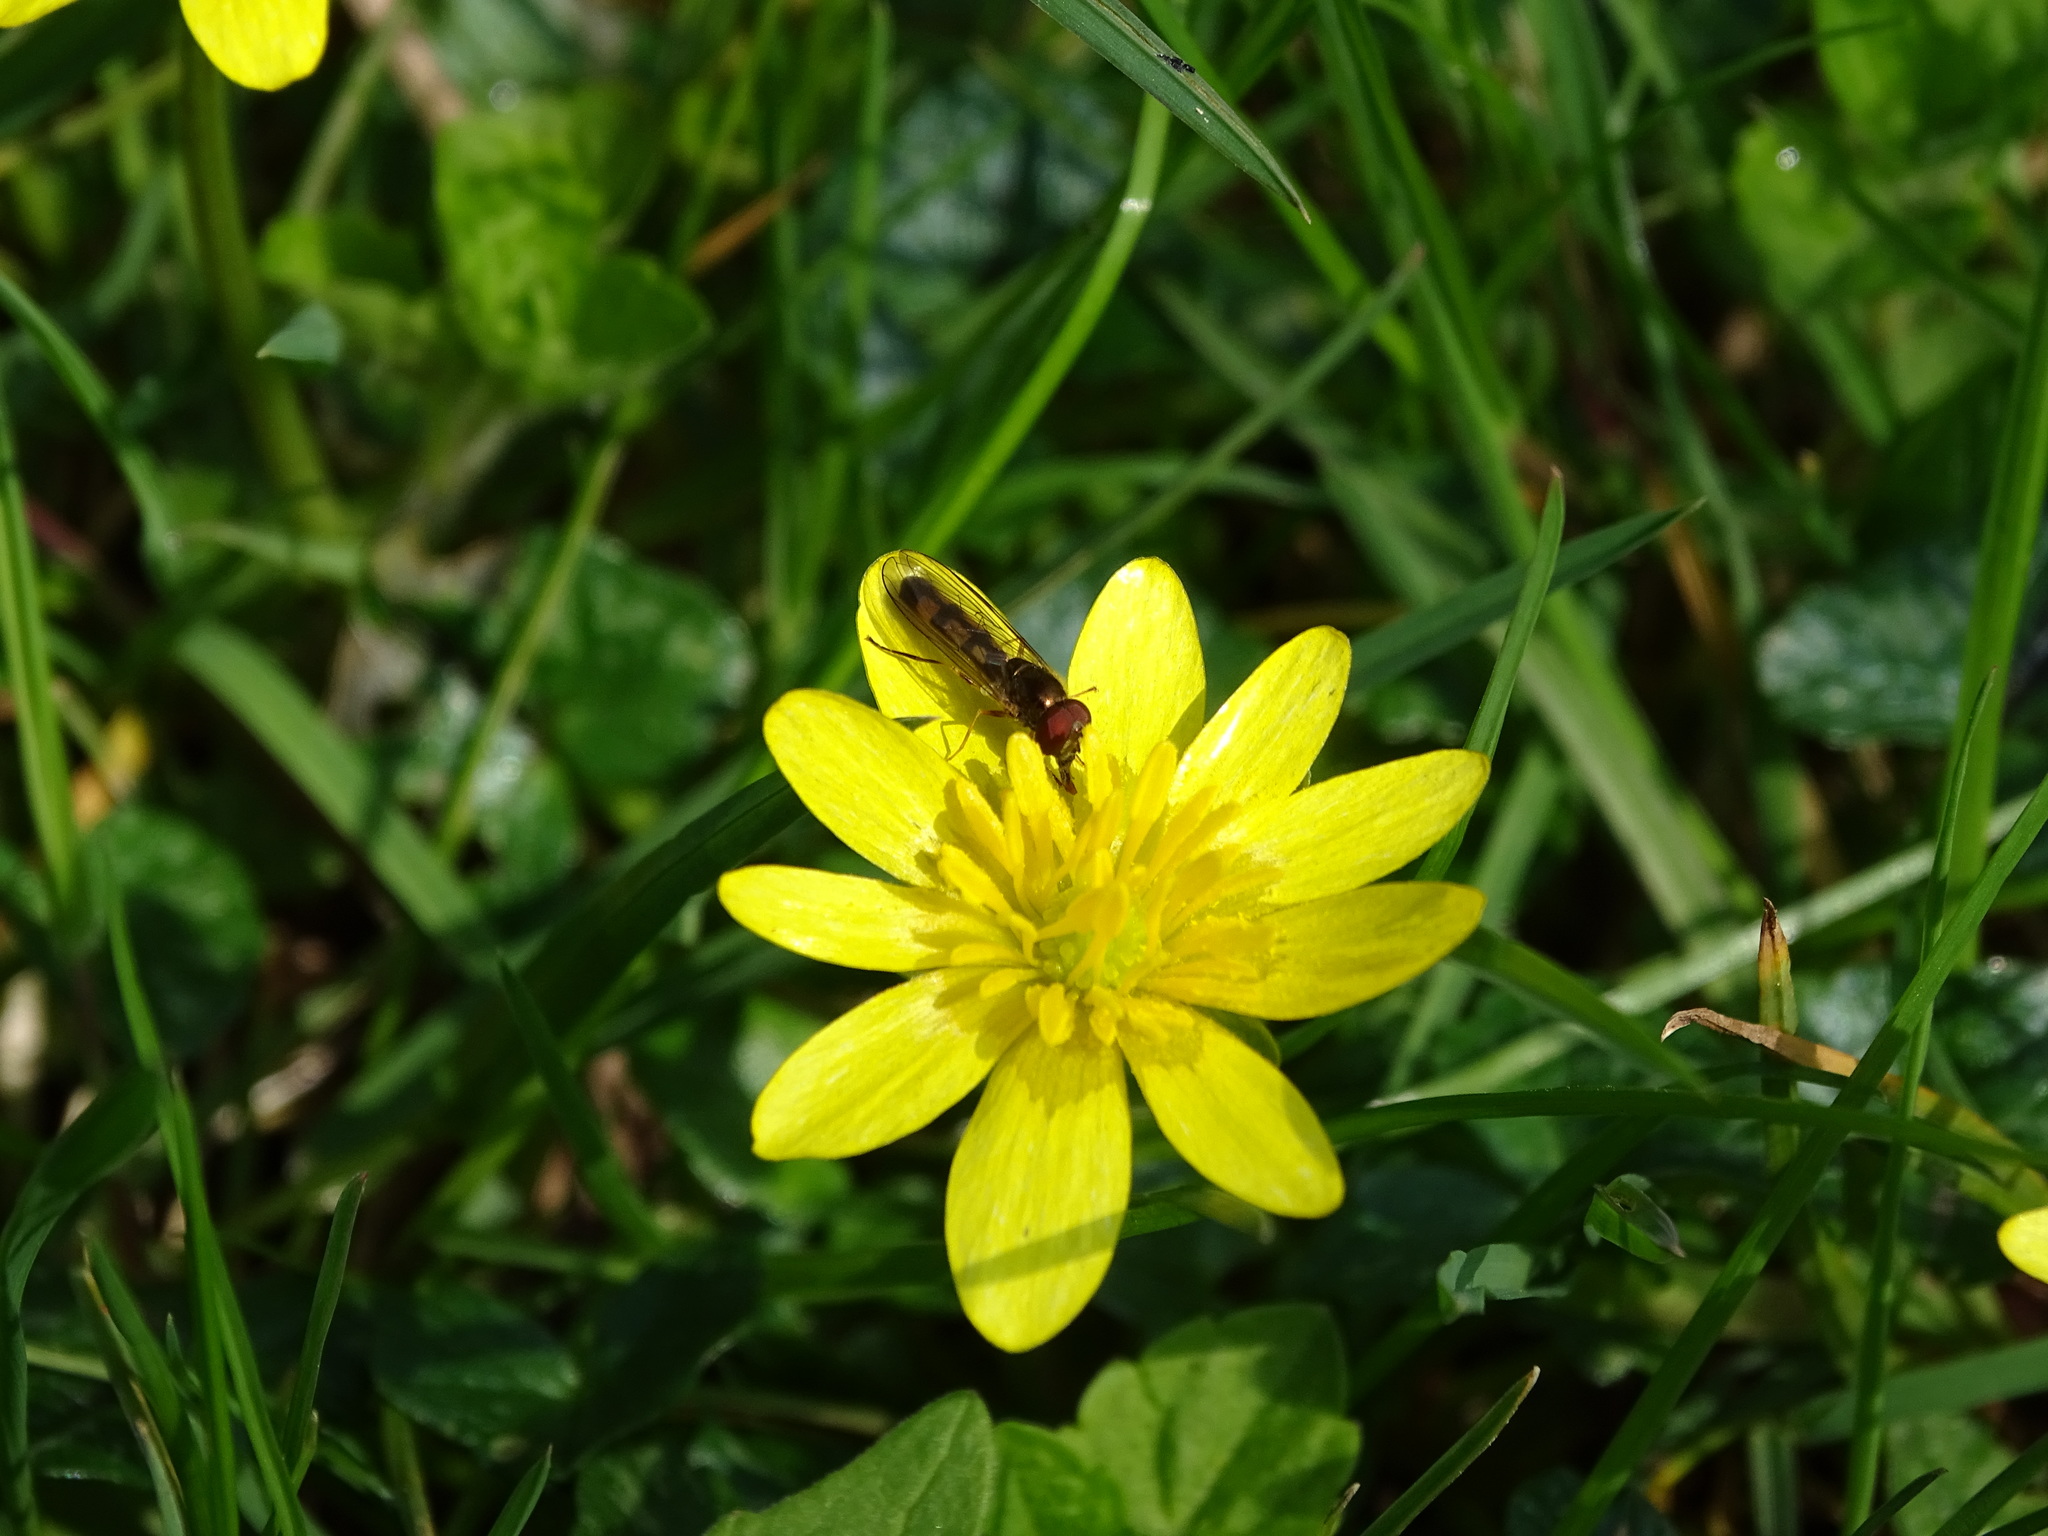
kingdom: Animalia
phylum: Arthropoda
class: Insecta
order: Diptera
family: Syrphidae
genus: Melanostoma
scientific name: Melanostoma scalare
